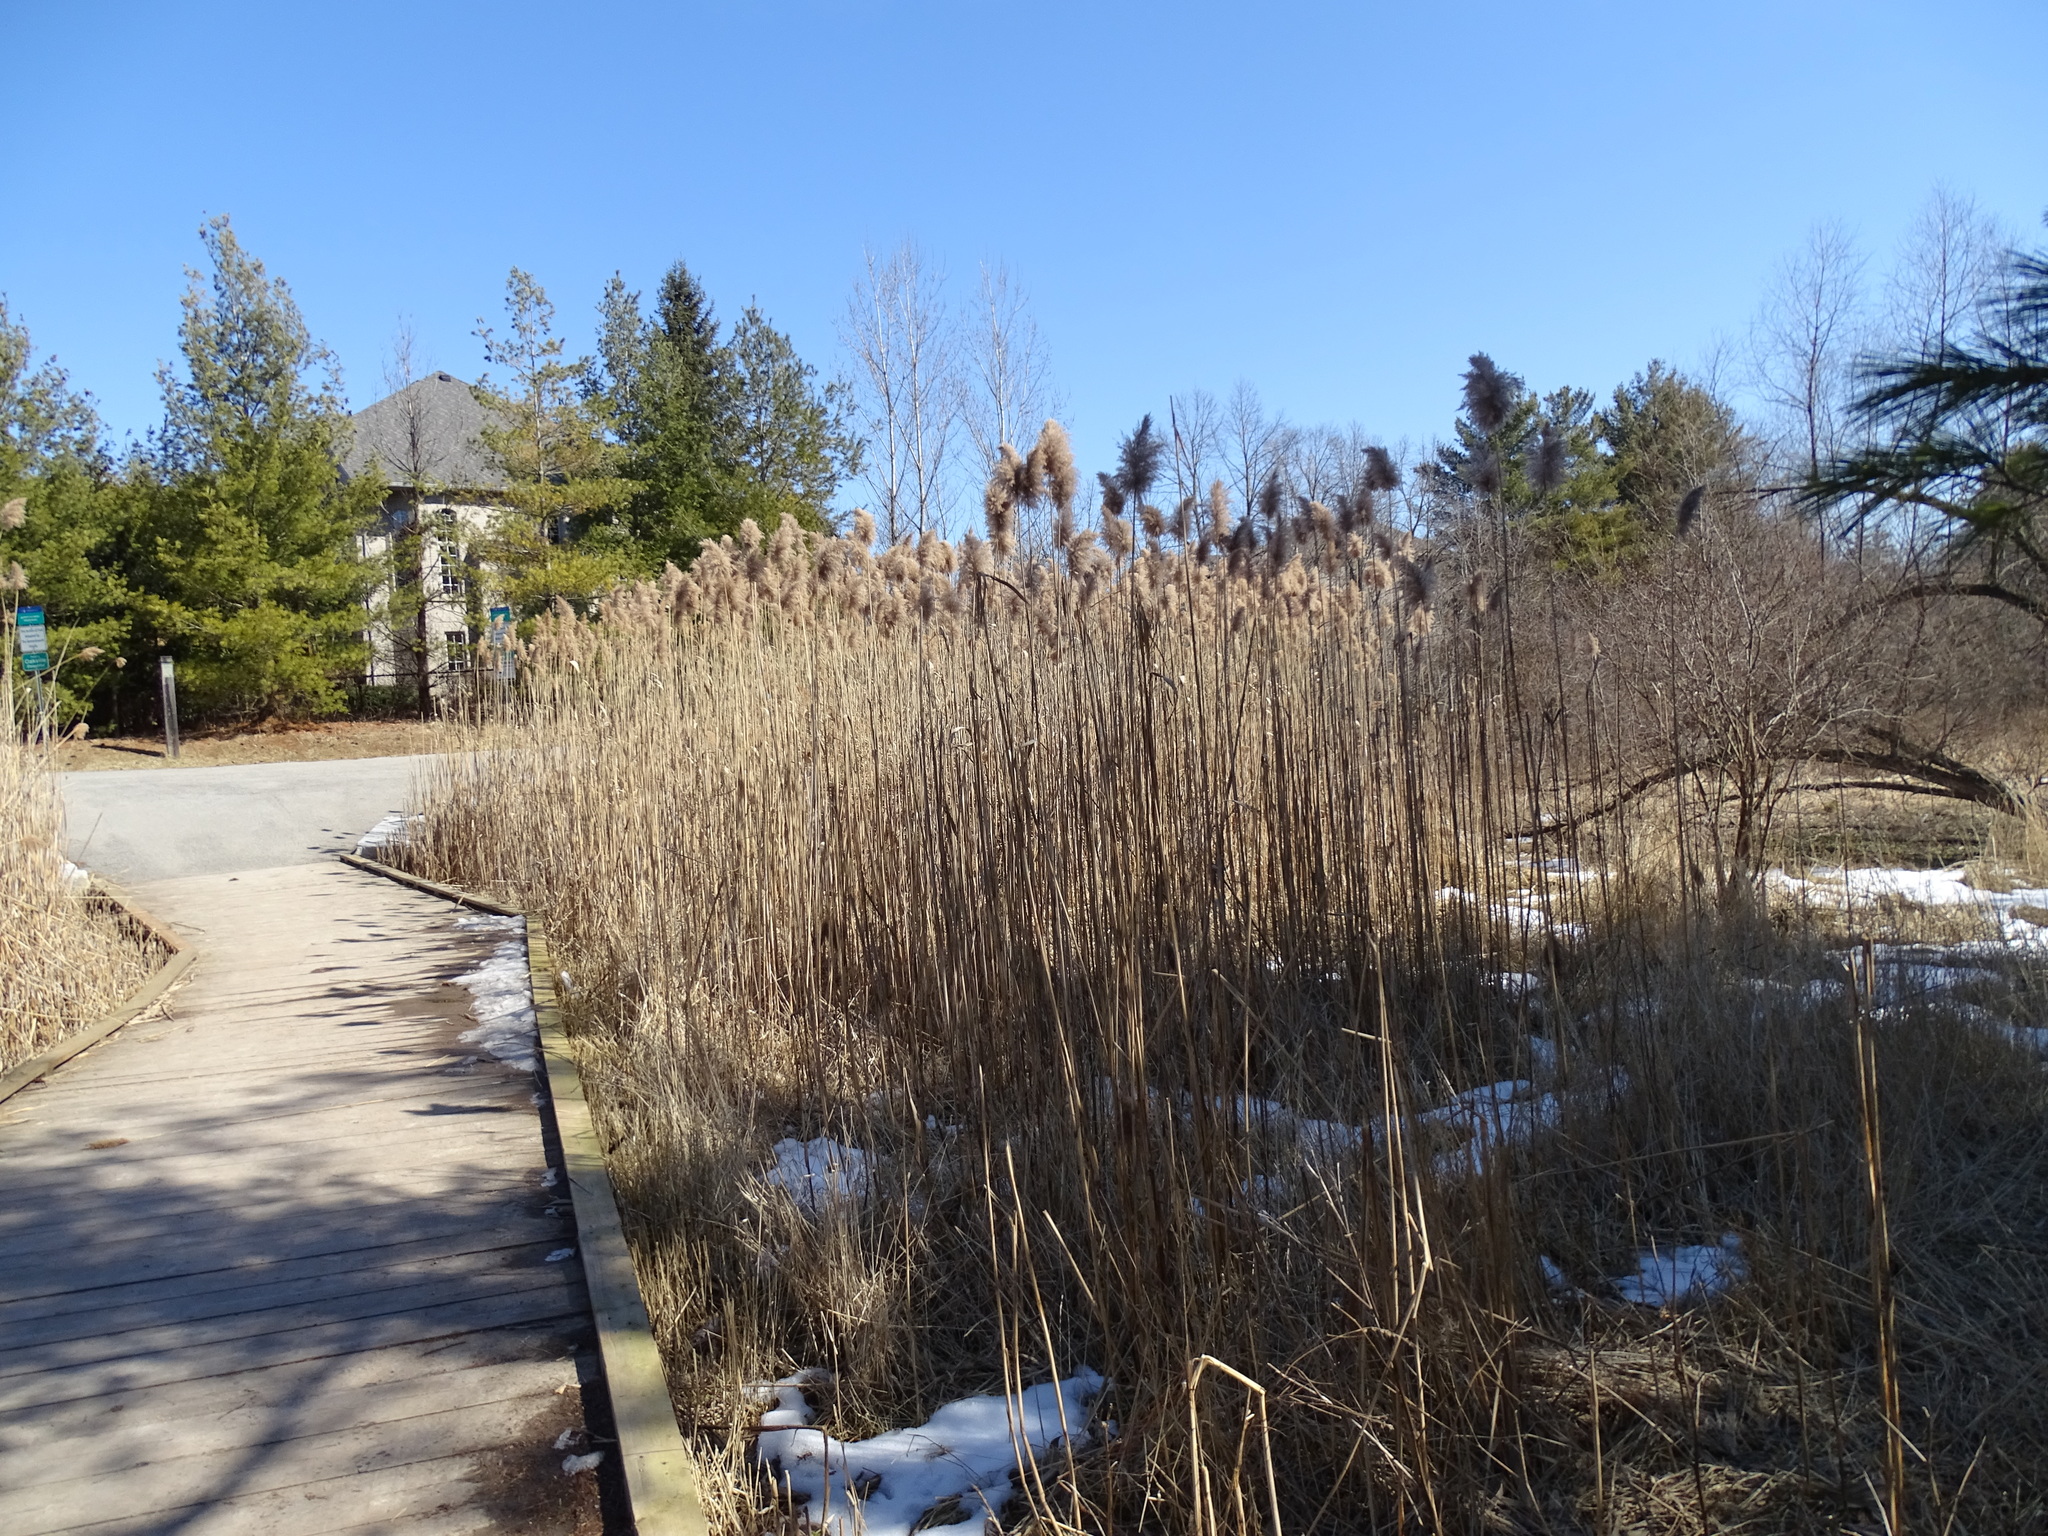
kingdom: Plantae
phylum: Tracheophyta
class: Liliopsida
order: Poales
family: Poaceae
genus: Phragmites
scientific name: Phragmites australis
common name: Common reed
